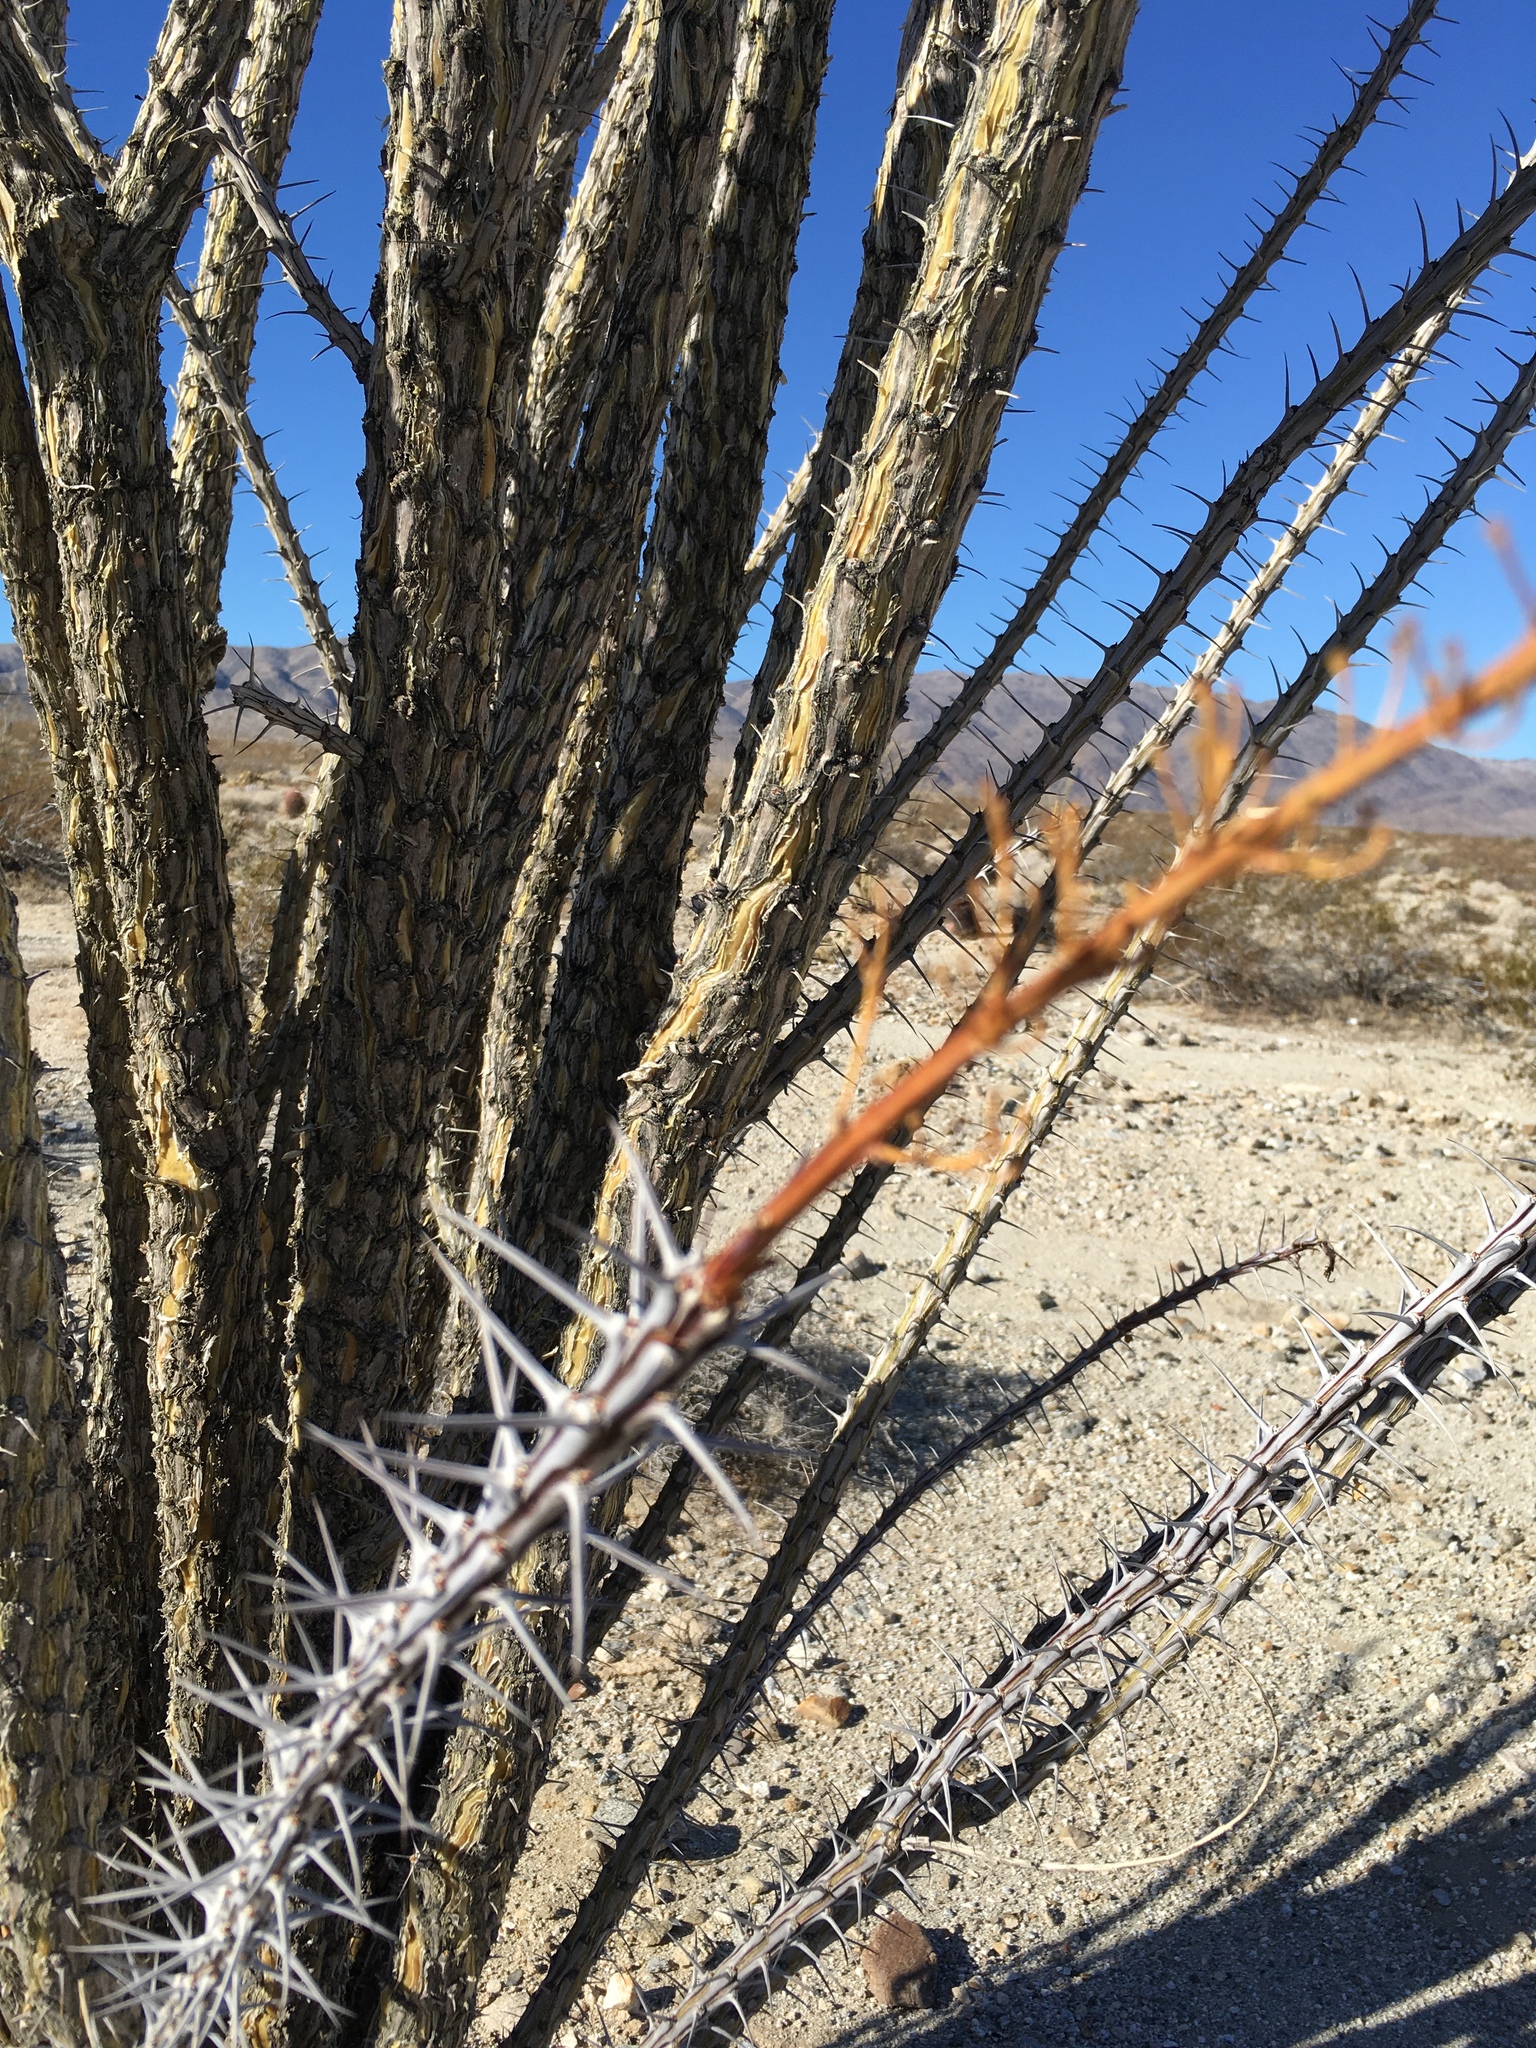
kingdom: Plantae
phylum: Tracheophyta
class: Magnoliopsida
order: Ericales
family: Fouquieriaceae
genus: Fouquieria
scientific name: Fouquieria splendens
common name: Vine-cactus
